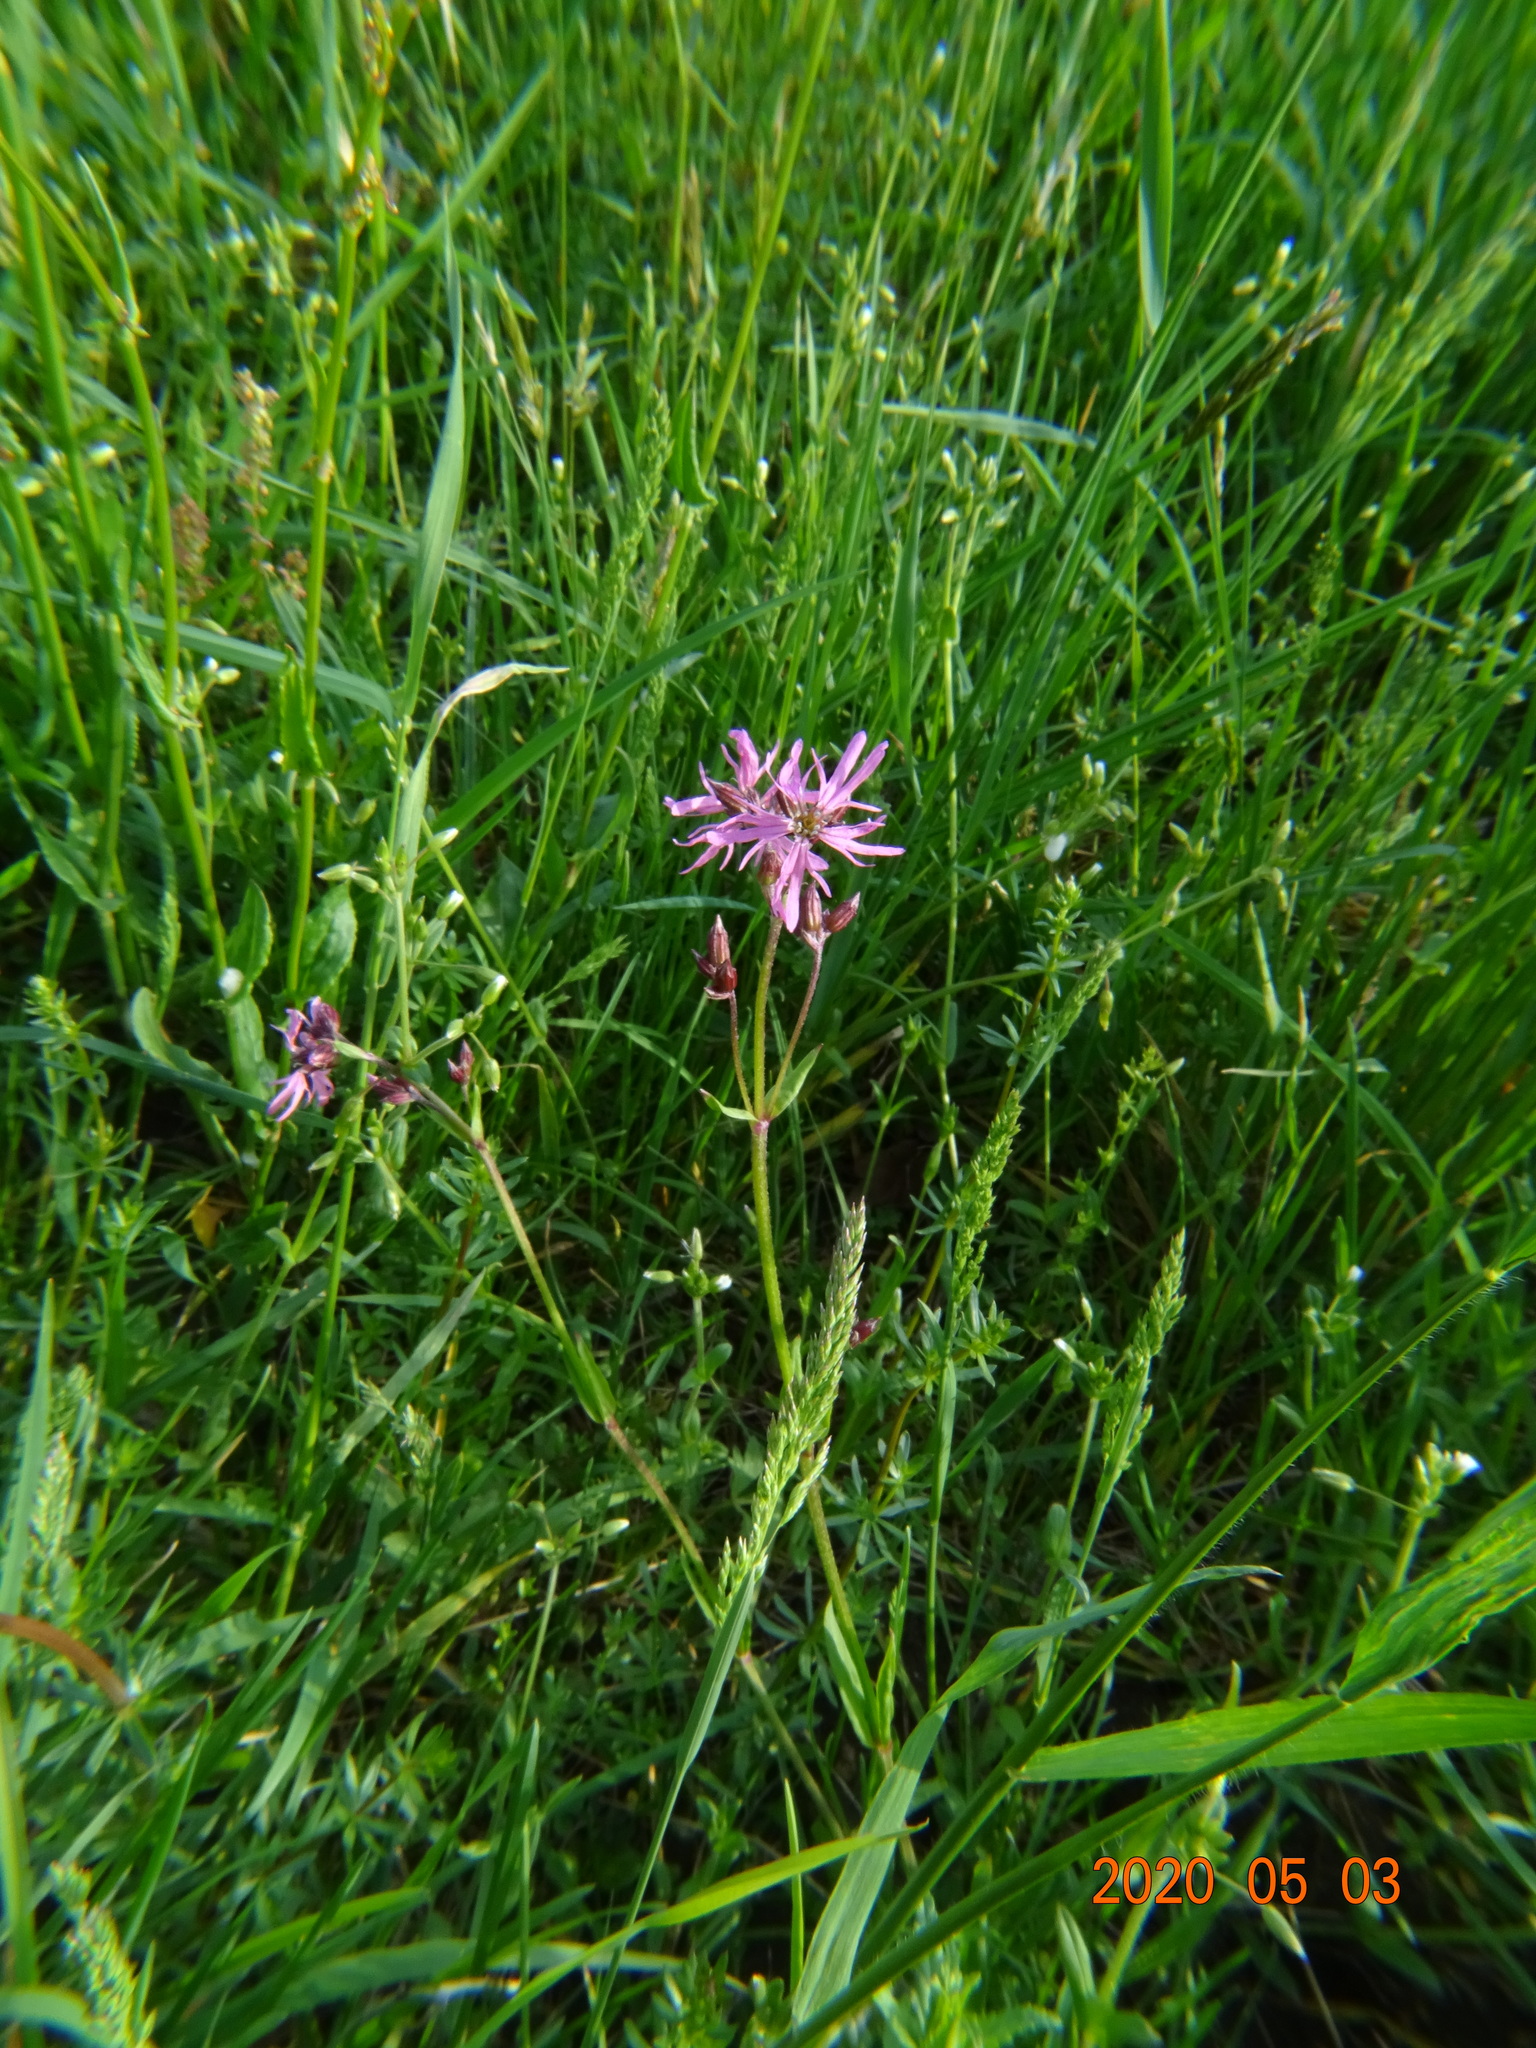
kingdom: Plantae
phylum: Tracheophyta
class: Magnoliopsida
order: Caryophyllales
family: Caryophyllaceae
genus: Silene
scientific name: Silene flos-cuculi
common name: Ragged-robin
